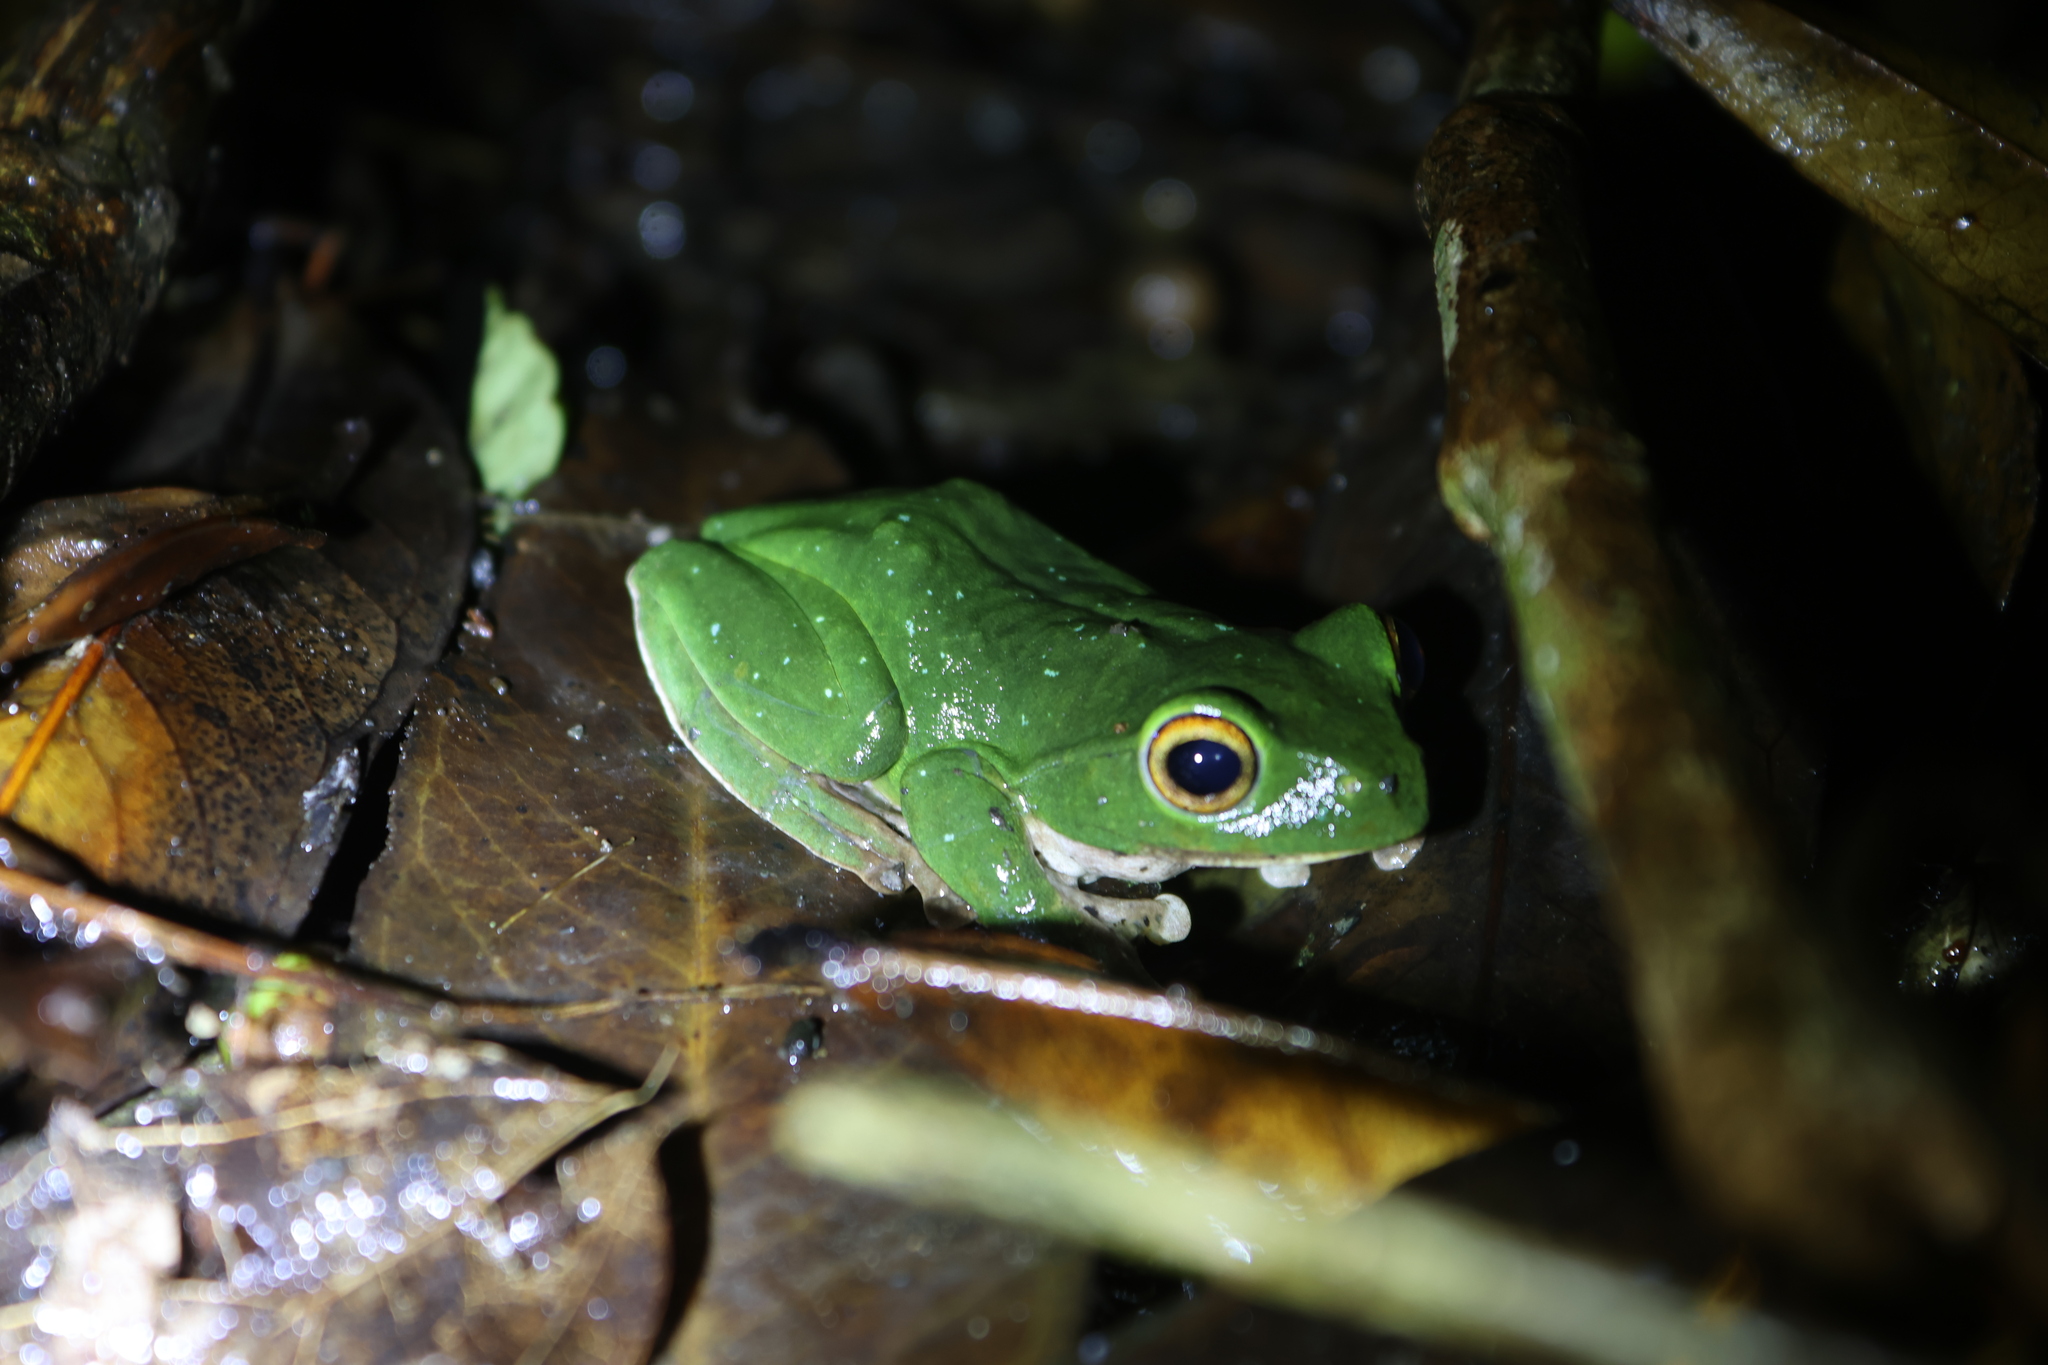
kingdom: Animalia
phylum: Chordata
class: Amphibia
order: Anura
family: Rhacophoridae
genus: Zhangixalus
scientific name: Zhangixalus moltrechti
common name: Moltrecht's treefrog
